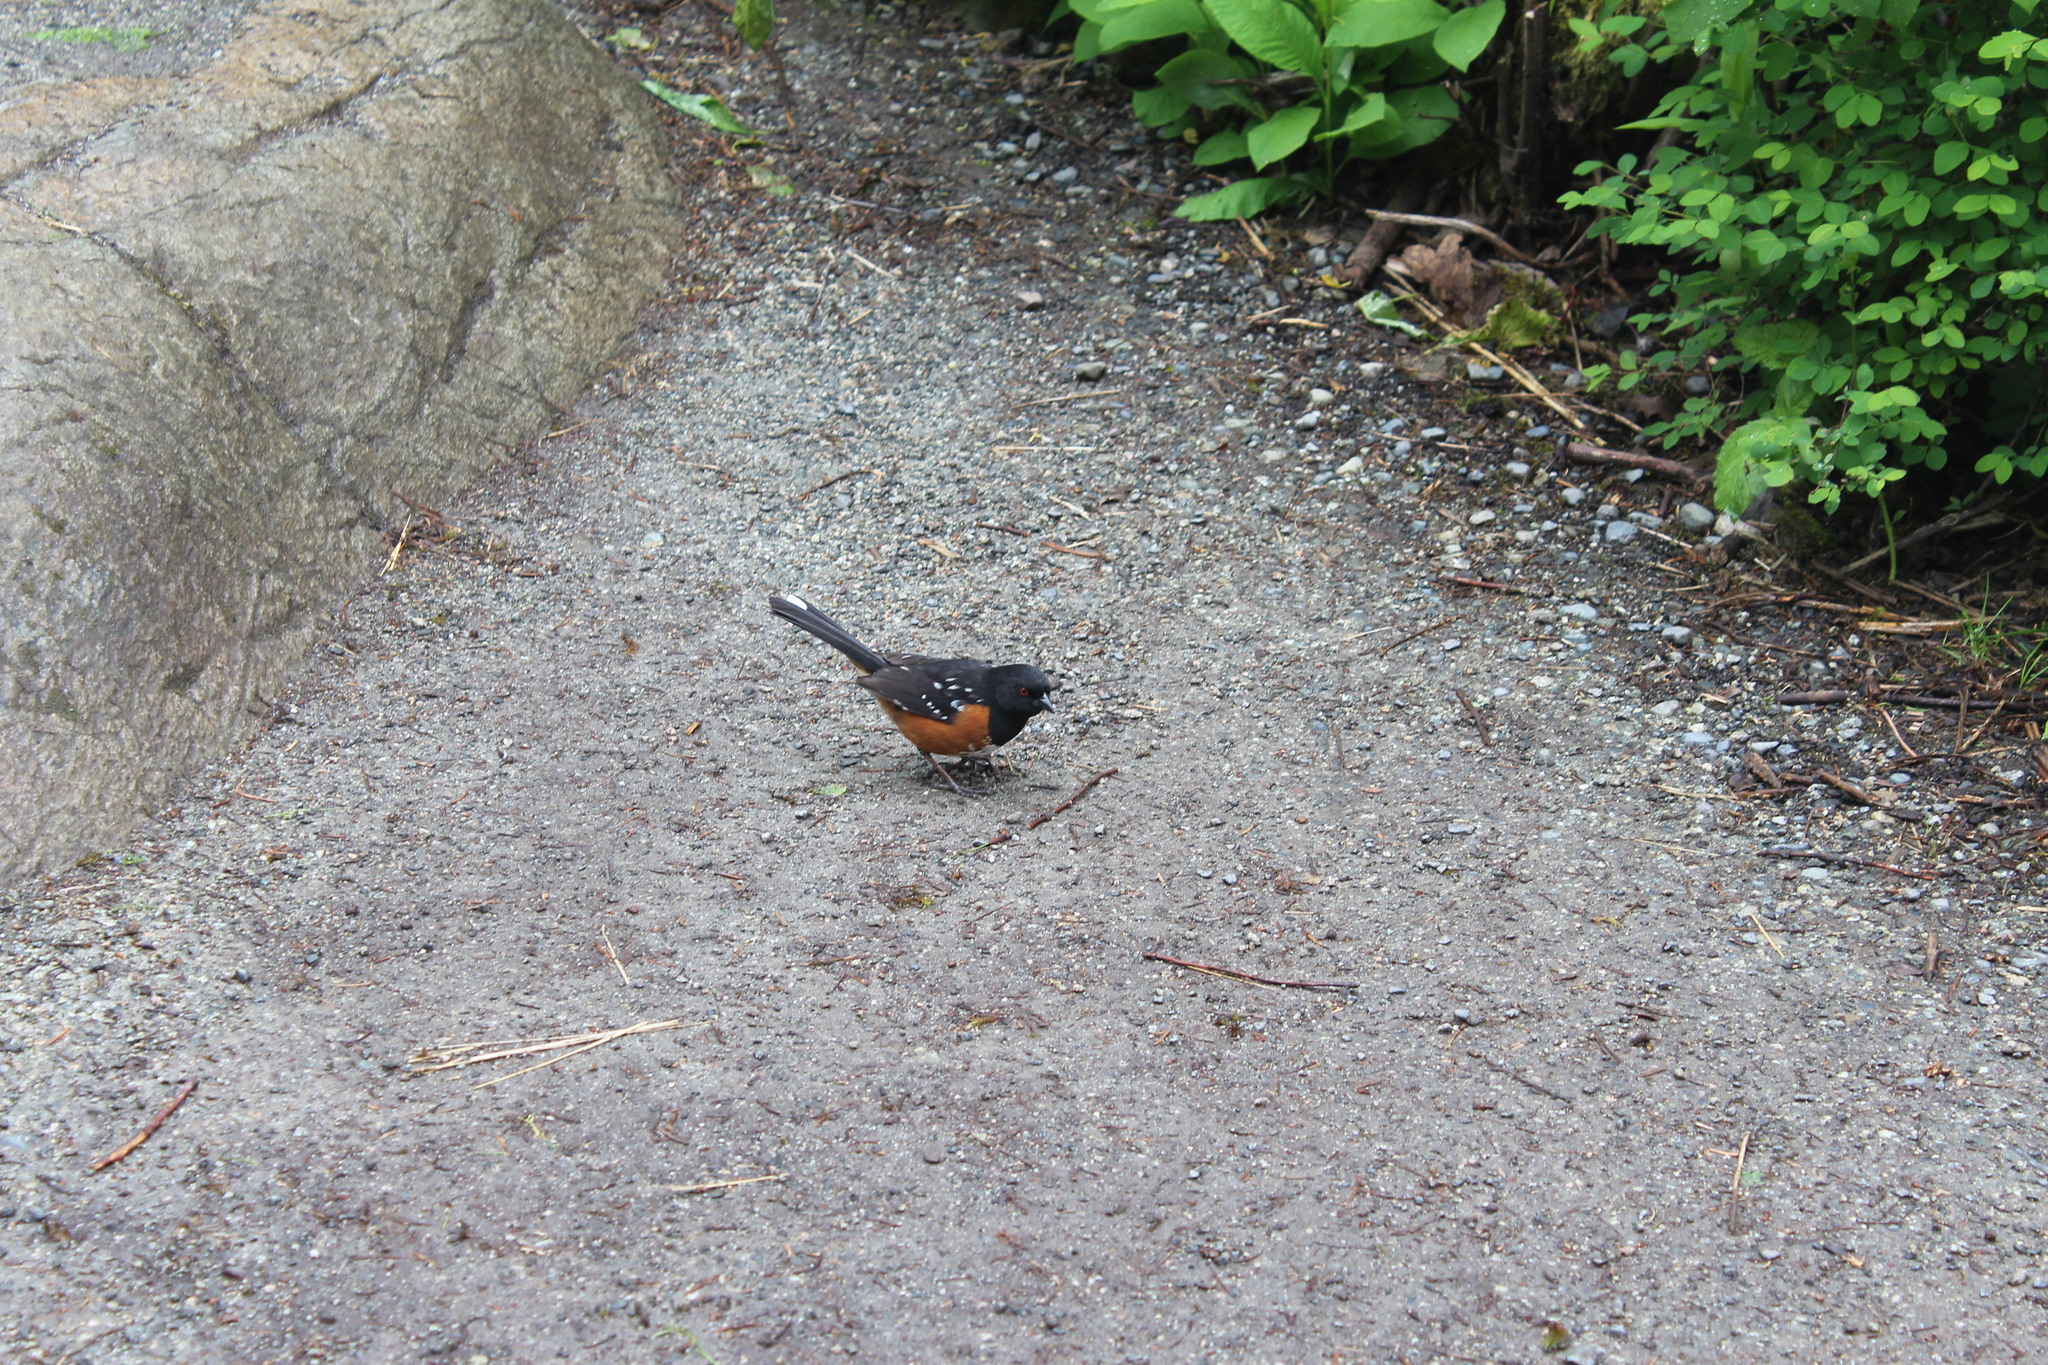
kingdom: Animalia
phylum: Chordata
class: Aves
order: Passeriformes
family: Passerellidae
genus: Pipilo
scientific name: Pipilo maculatus
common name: Spotted towhee
